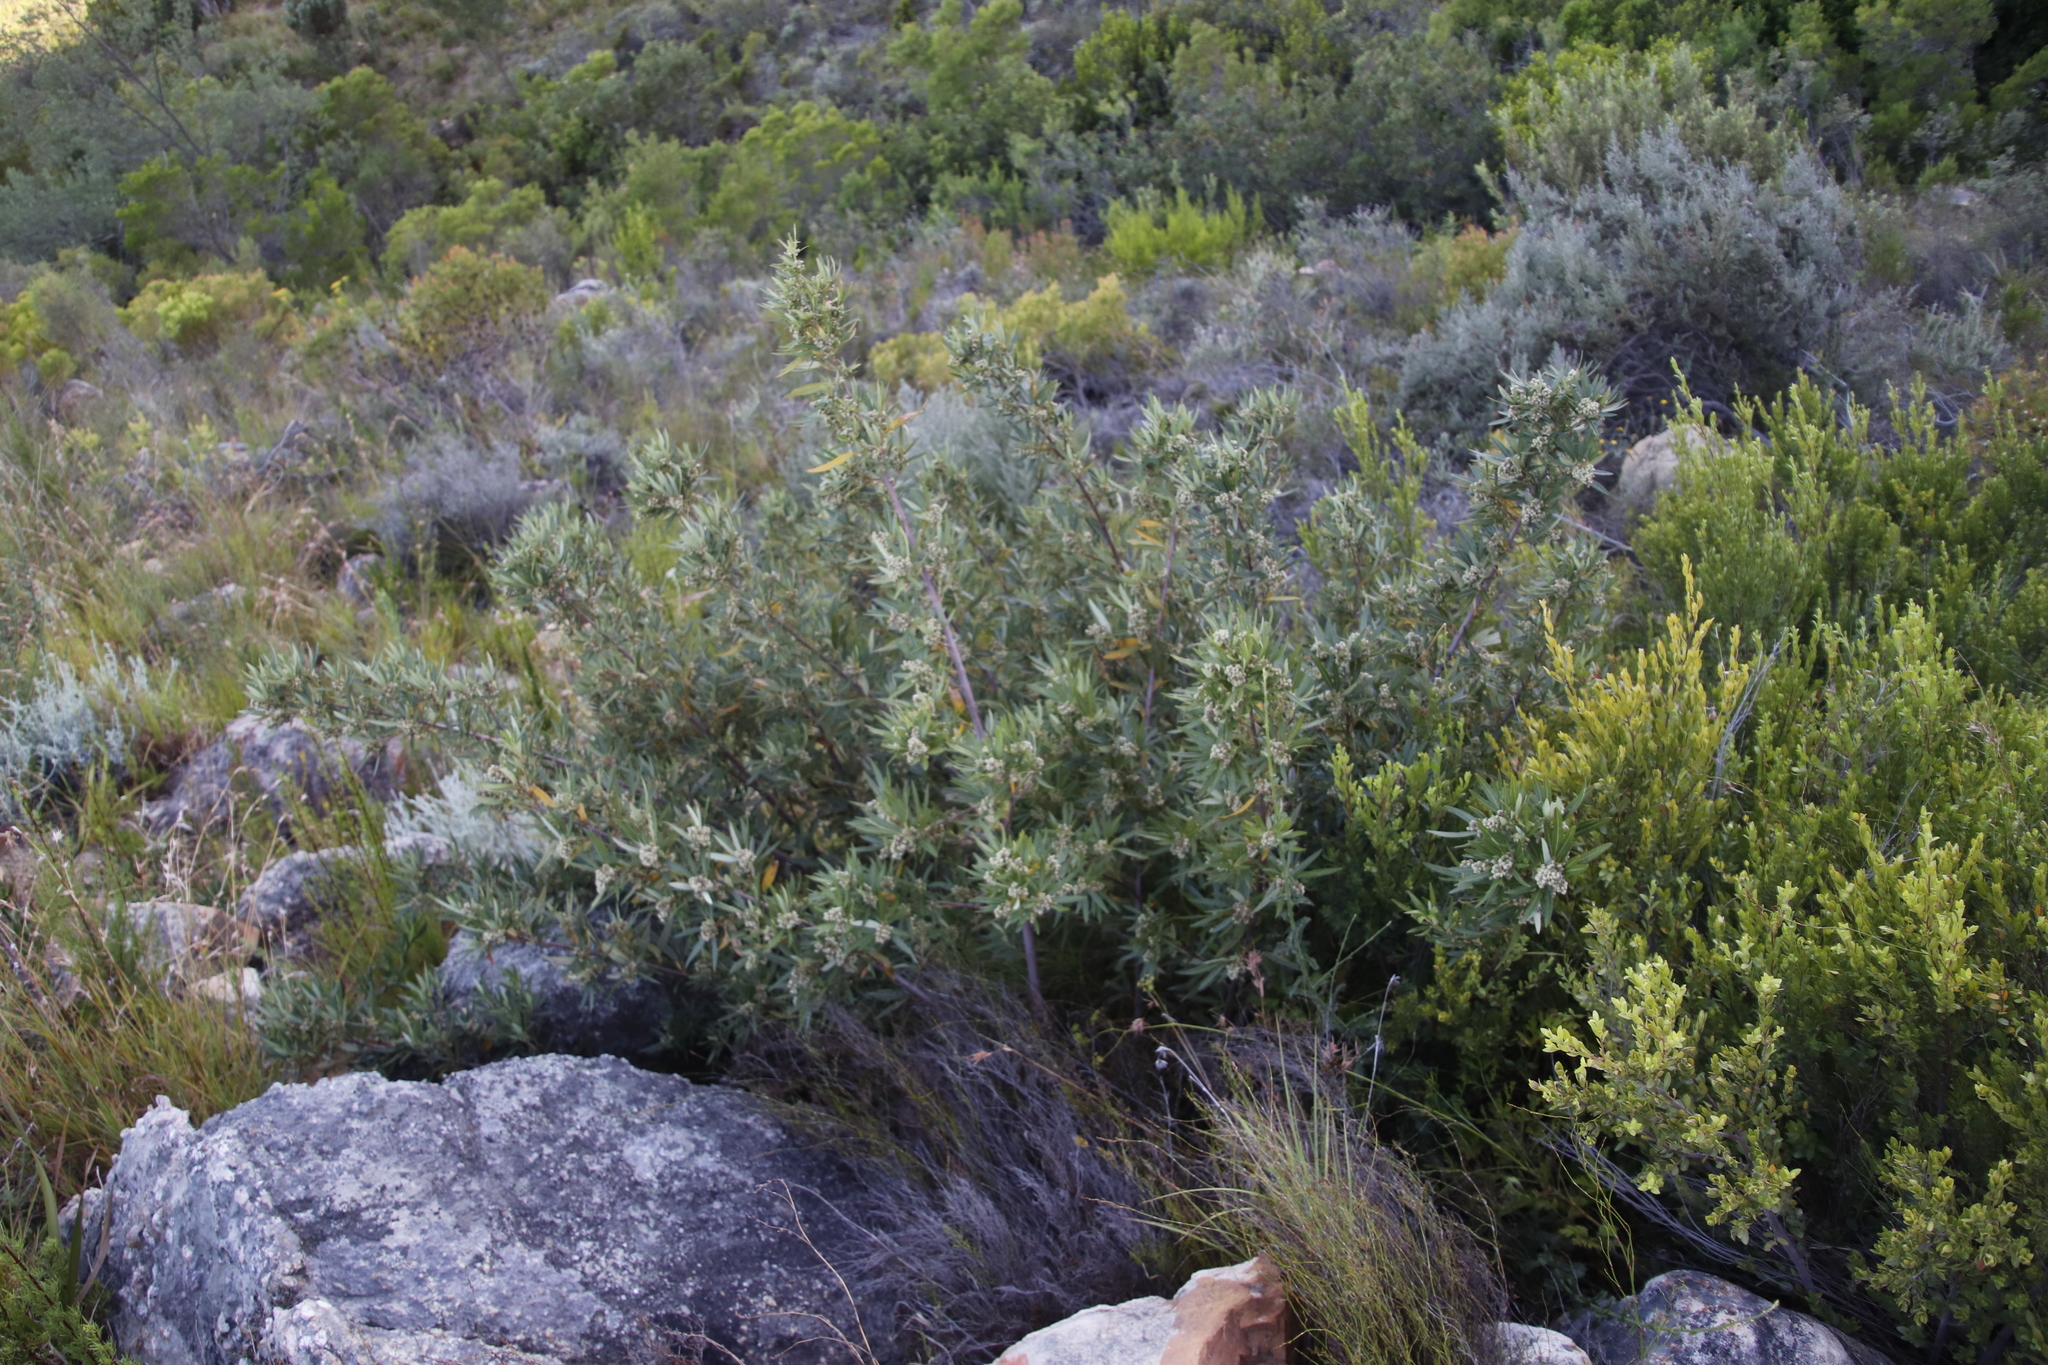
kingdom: Plantae
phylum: Tracheophyta
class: Magnoliopsida
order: Sapindales
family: Anacardiaceae
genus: Searsia
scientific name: Searsia angustifolia
